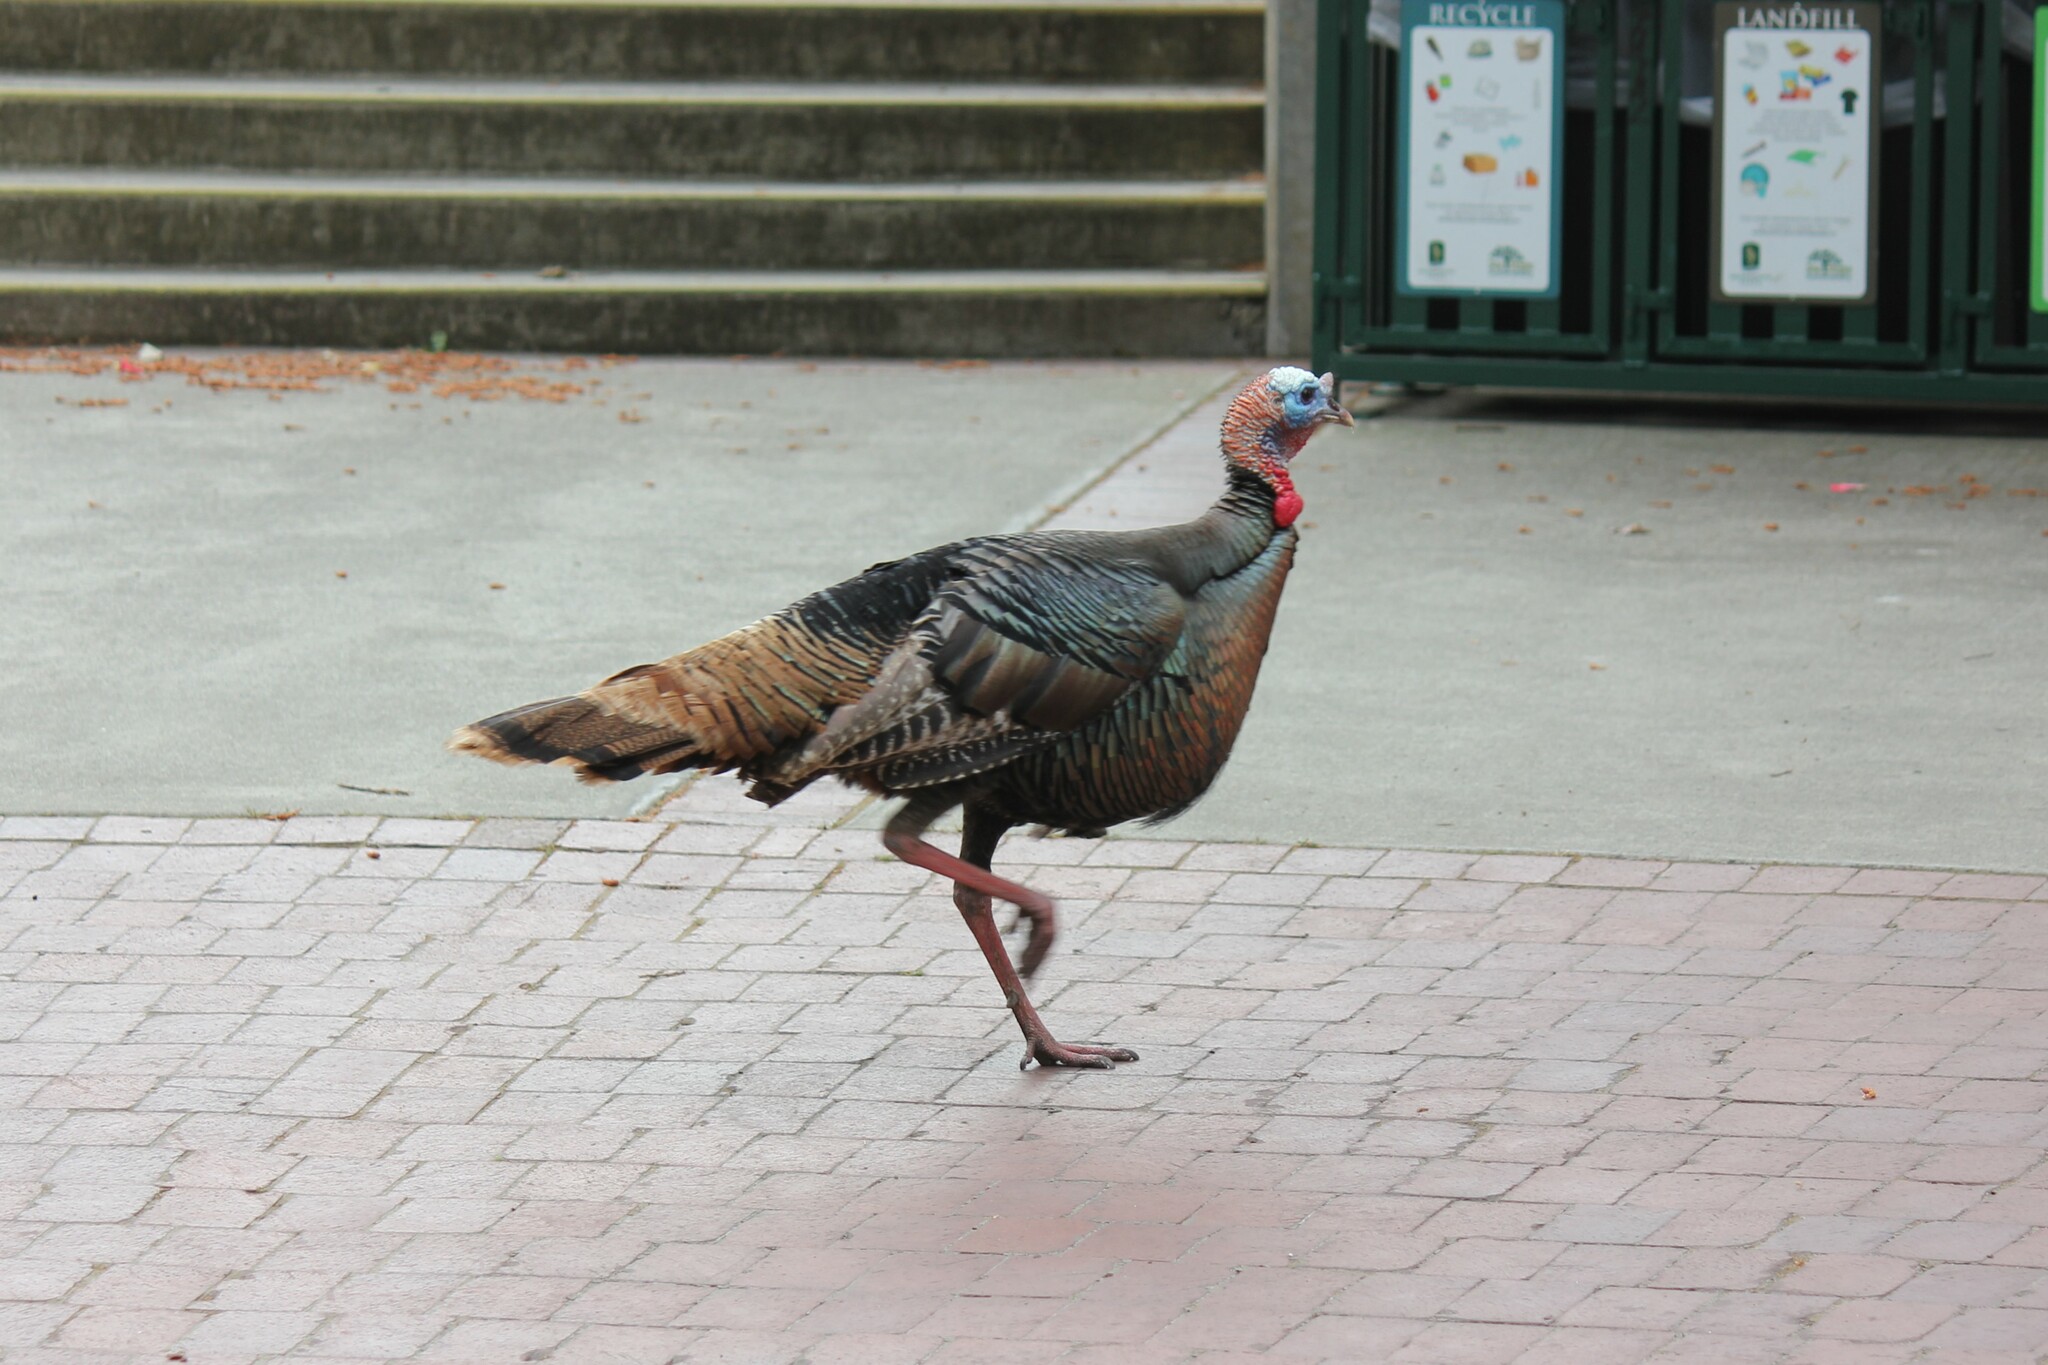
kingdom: Animalia
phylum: Chordata
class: Aves
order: Galliformes
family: Phasianidae
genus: Meleagris
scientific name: Meleagris gallopavo
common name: Wild turkey
